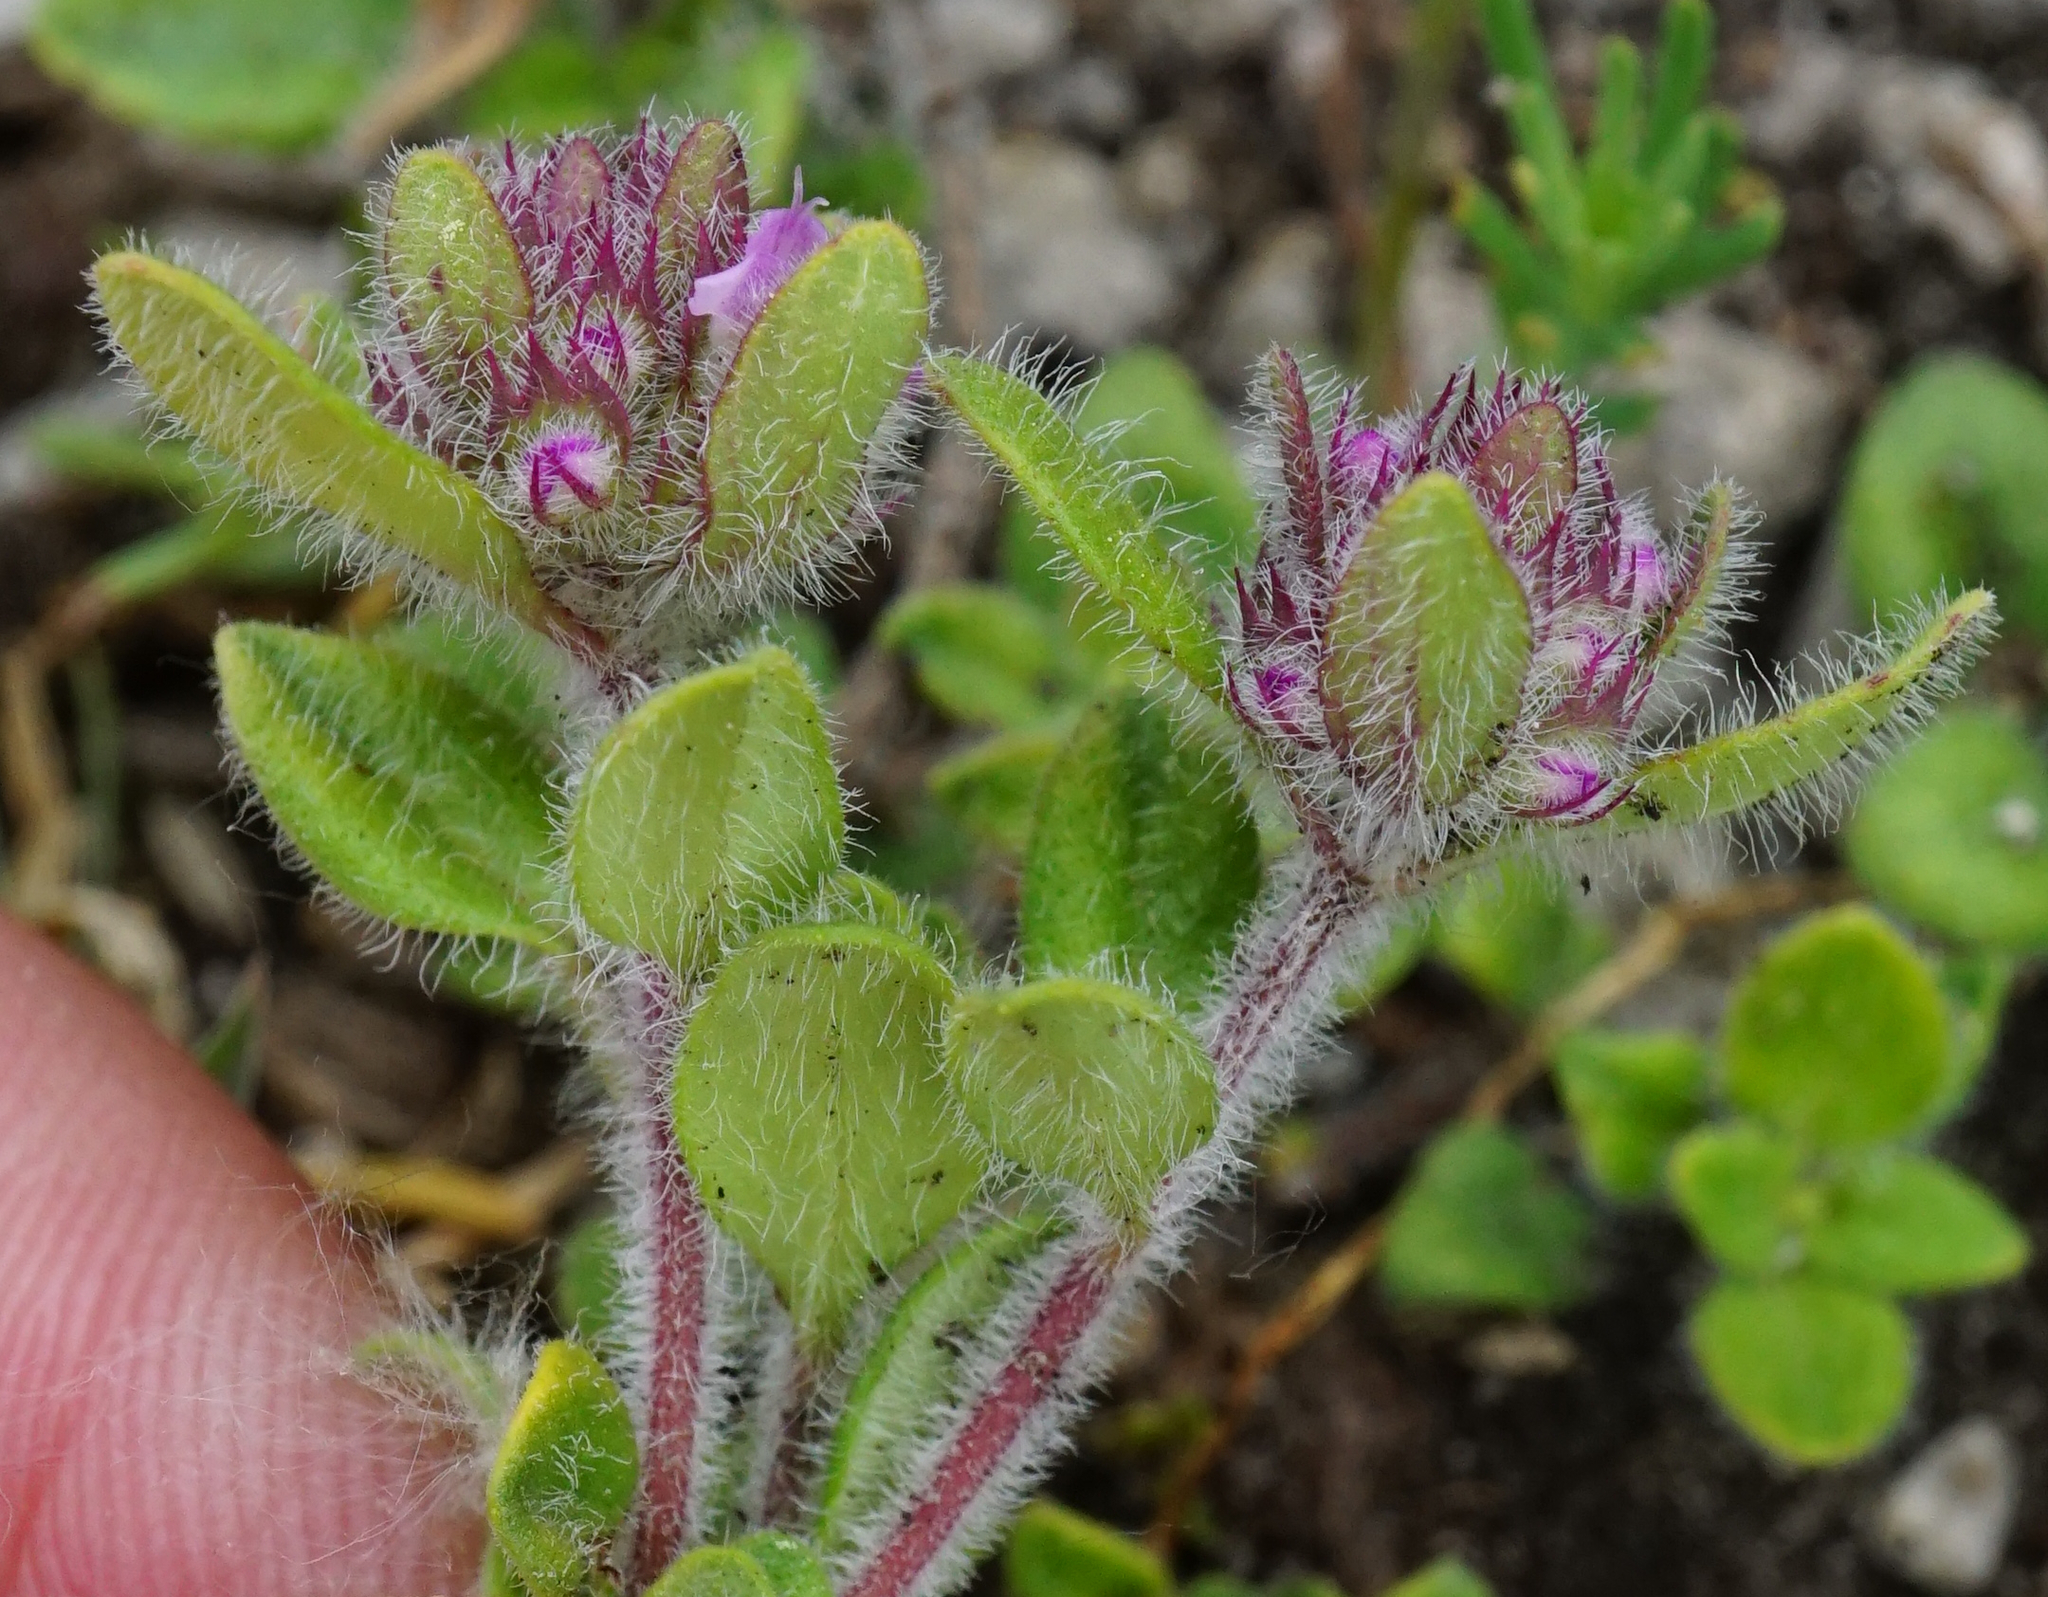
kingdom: Plantae
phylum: Tracheophyta
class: Magnoliopsida
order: Lamiales
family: Lamiaceae
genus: Thymus
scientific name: Thymus praecox
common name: Wild thyme
